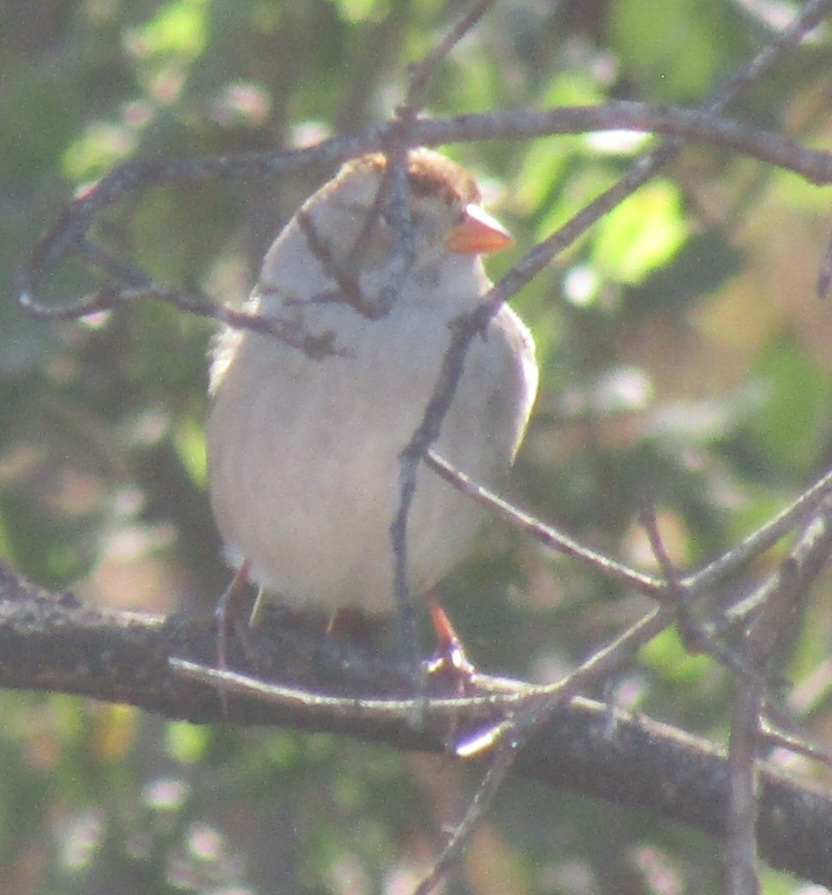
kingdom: Animalia
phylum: Chordata
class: Aves
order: Passeriformes
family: Passerellidae
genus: Zonotrichia
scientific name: Zonotrichia leucophrys
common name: White-crowned sparrow
